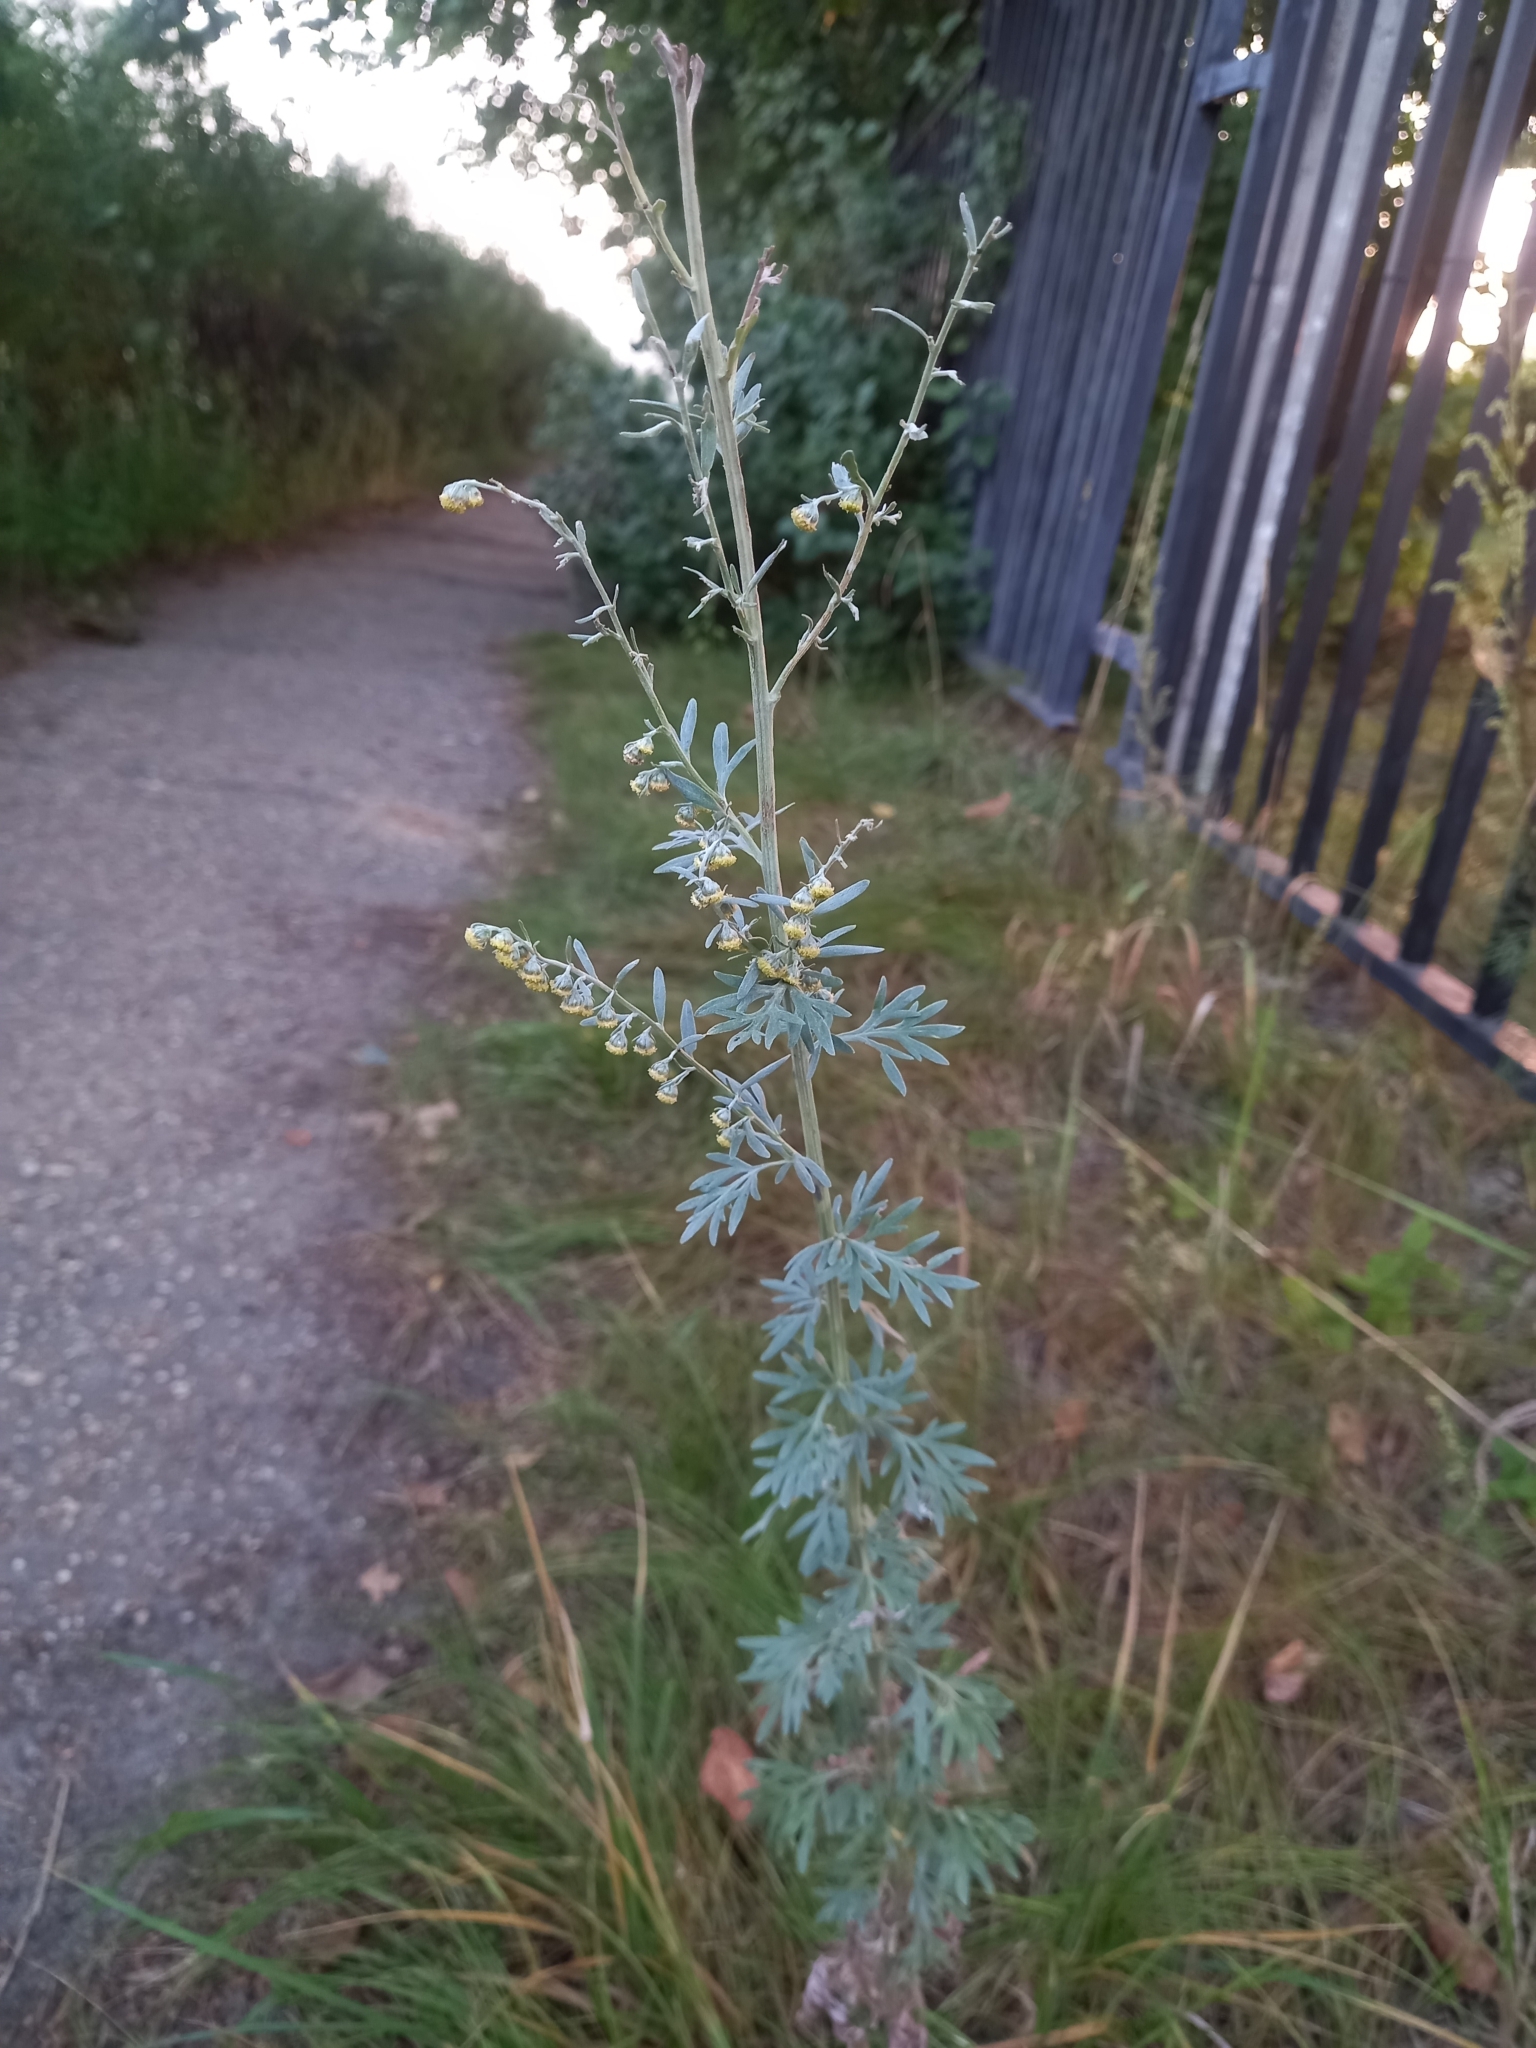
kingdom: Plantae
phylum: Tracheophyta
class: Magnoliopsida
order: Asterales
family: Asteraceae
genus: Artemisia
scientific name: Artemisia absinthium
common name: Wormwood
